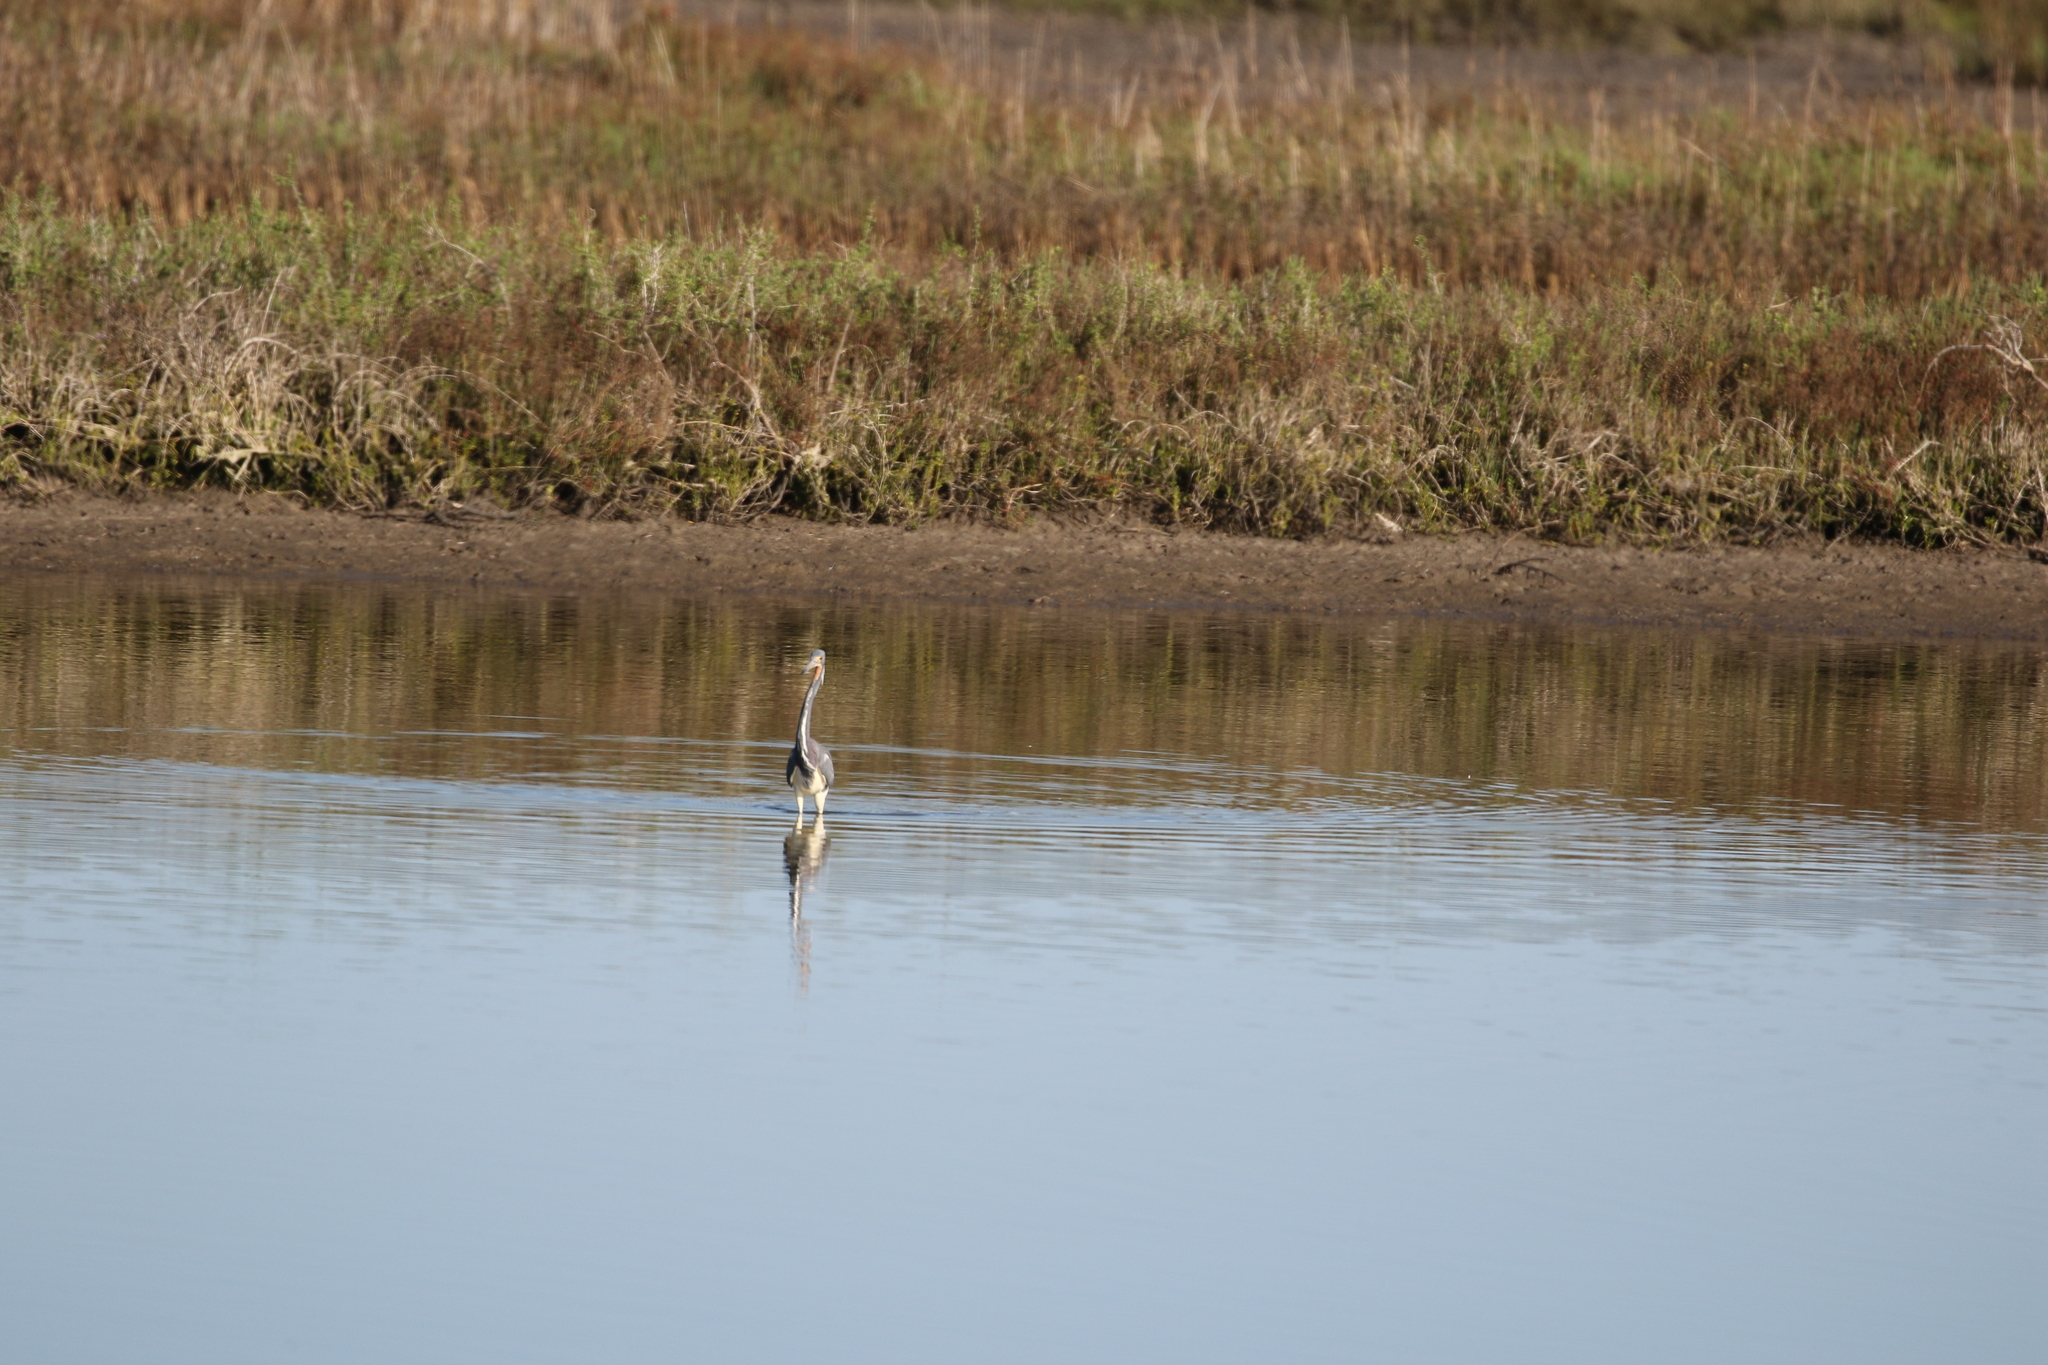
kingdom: Animalia
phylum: Chordata
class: Aves
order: Pelecaniformes
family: Ardeidae
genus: Egretta
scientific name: Egretta tricolor
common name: Tricolored heron
